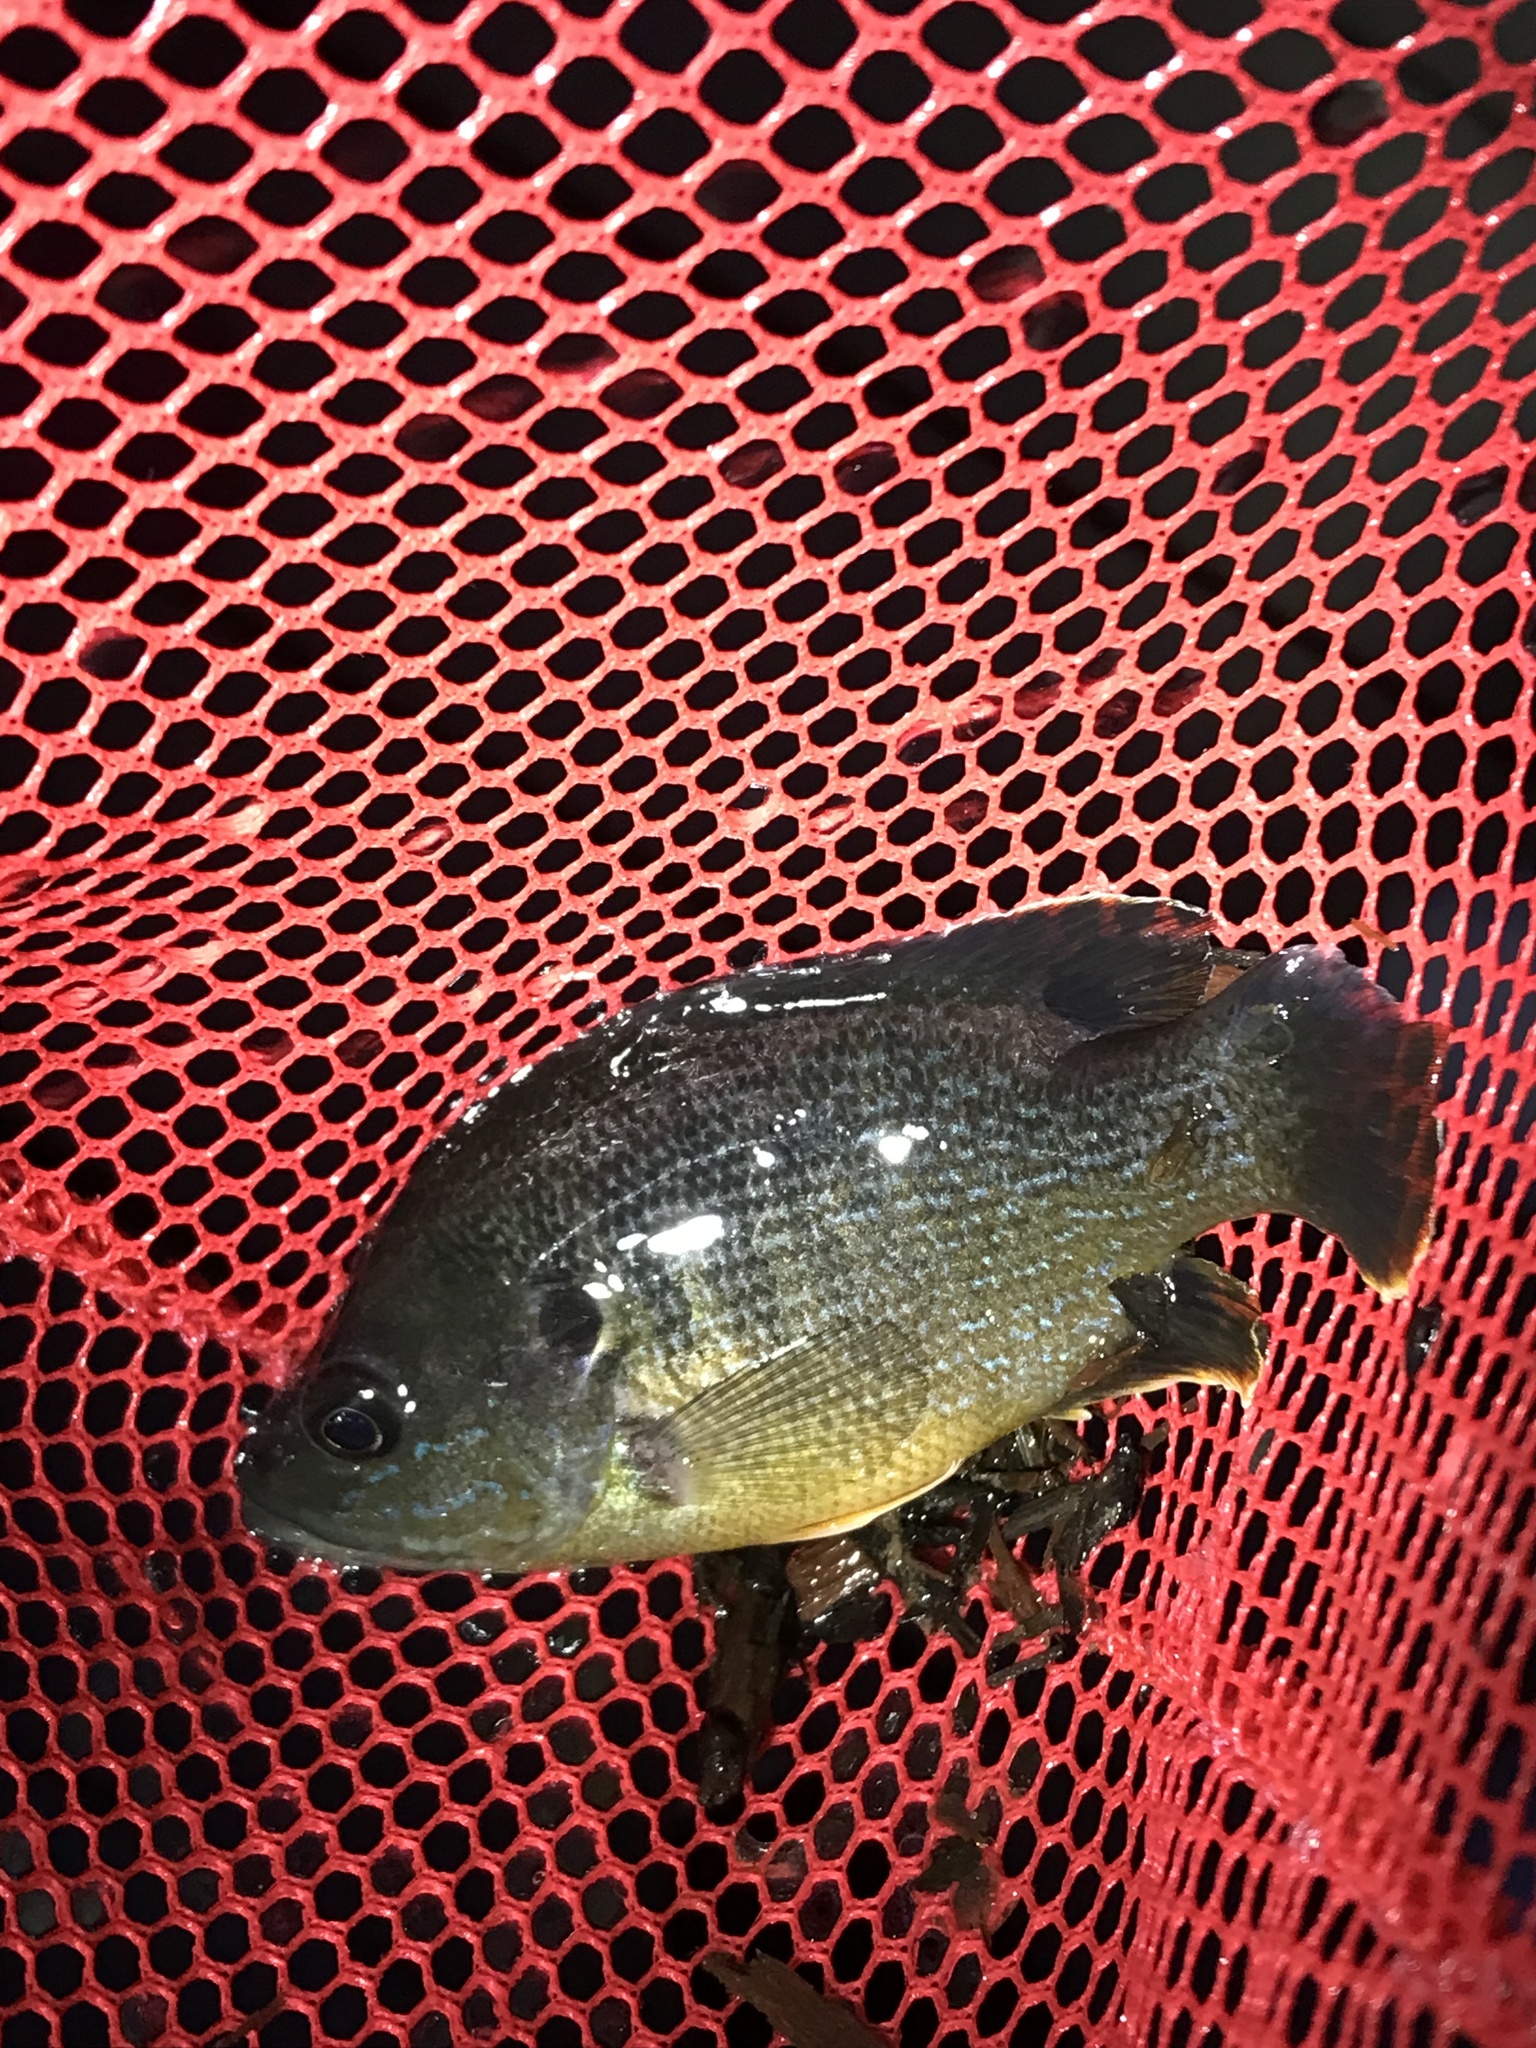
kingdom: Animalia
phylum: Chordata
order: Perciformes
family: Centrarchidae
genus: Lepomis
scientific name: Lepomis cyanellus
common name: Green sunfish
